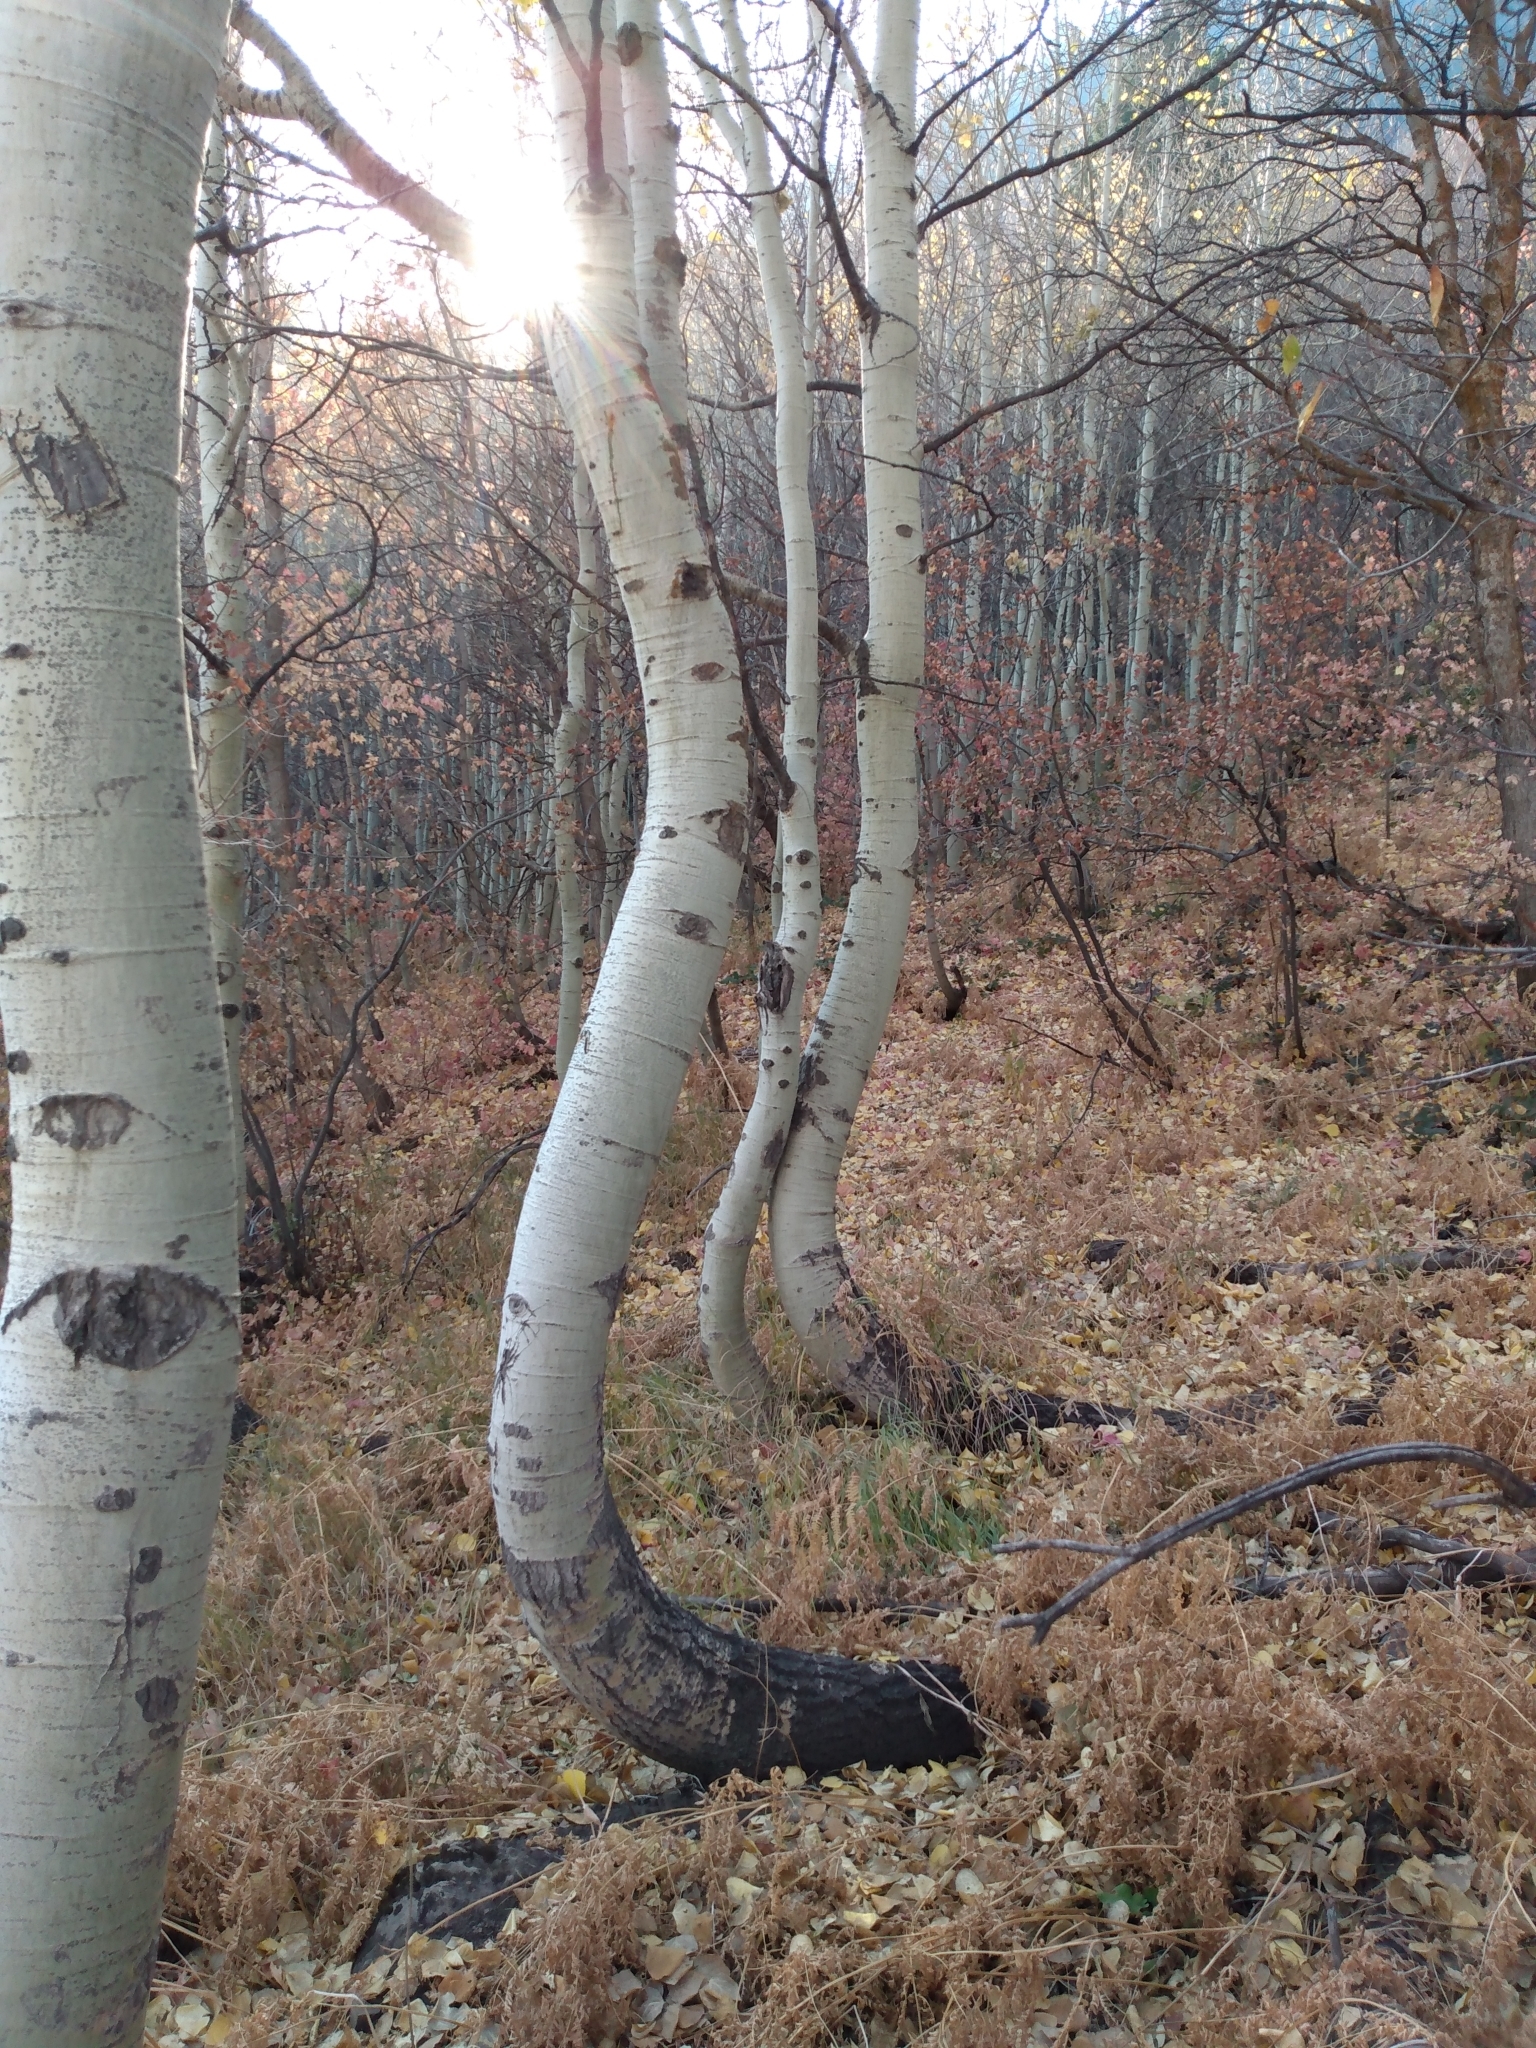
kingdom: Plantae
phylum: Tracheophyta
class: Magnoliopsida
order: Malpighiales
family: Salicaceae
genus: Populus
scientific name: Populus tremuloides
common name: Quaking aspen
